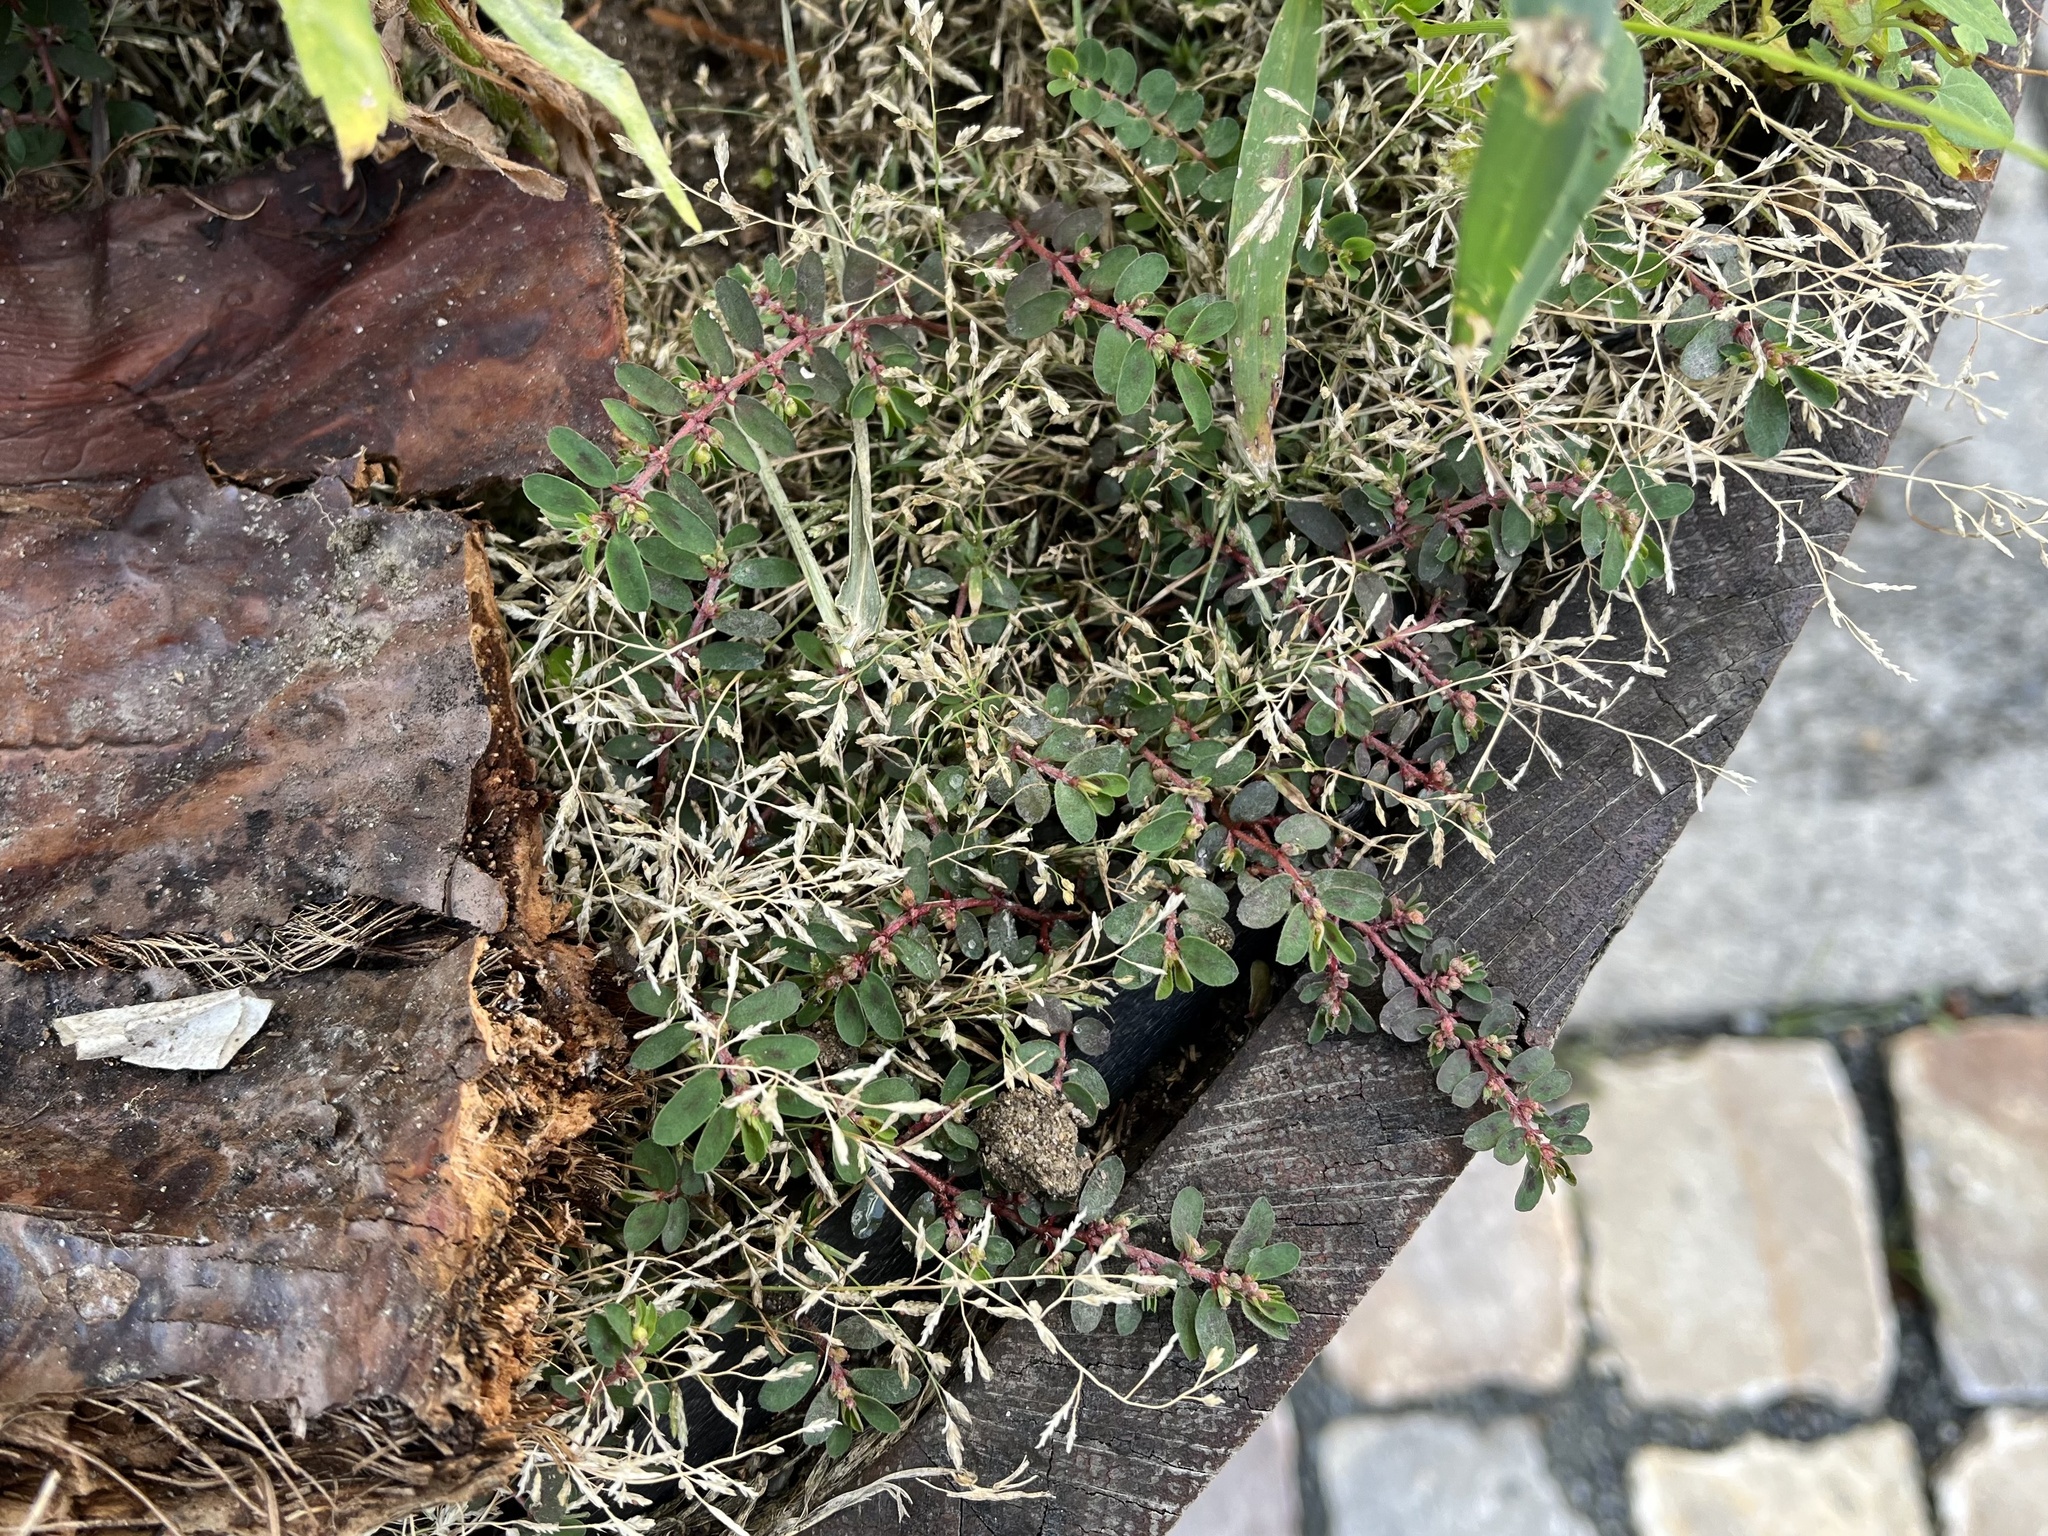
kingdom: Plantae
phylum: Tracheophyta
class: Magnoliopsida
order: Malpighiales
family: Euphorbiaceae
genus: Euphorbia
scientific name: Euphorbia maculata
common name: Spotted spurge
